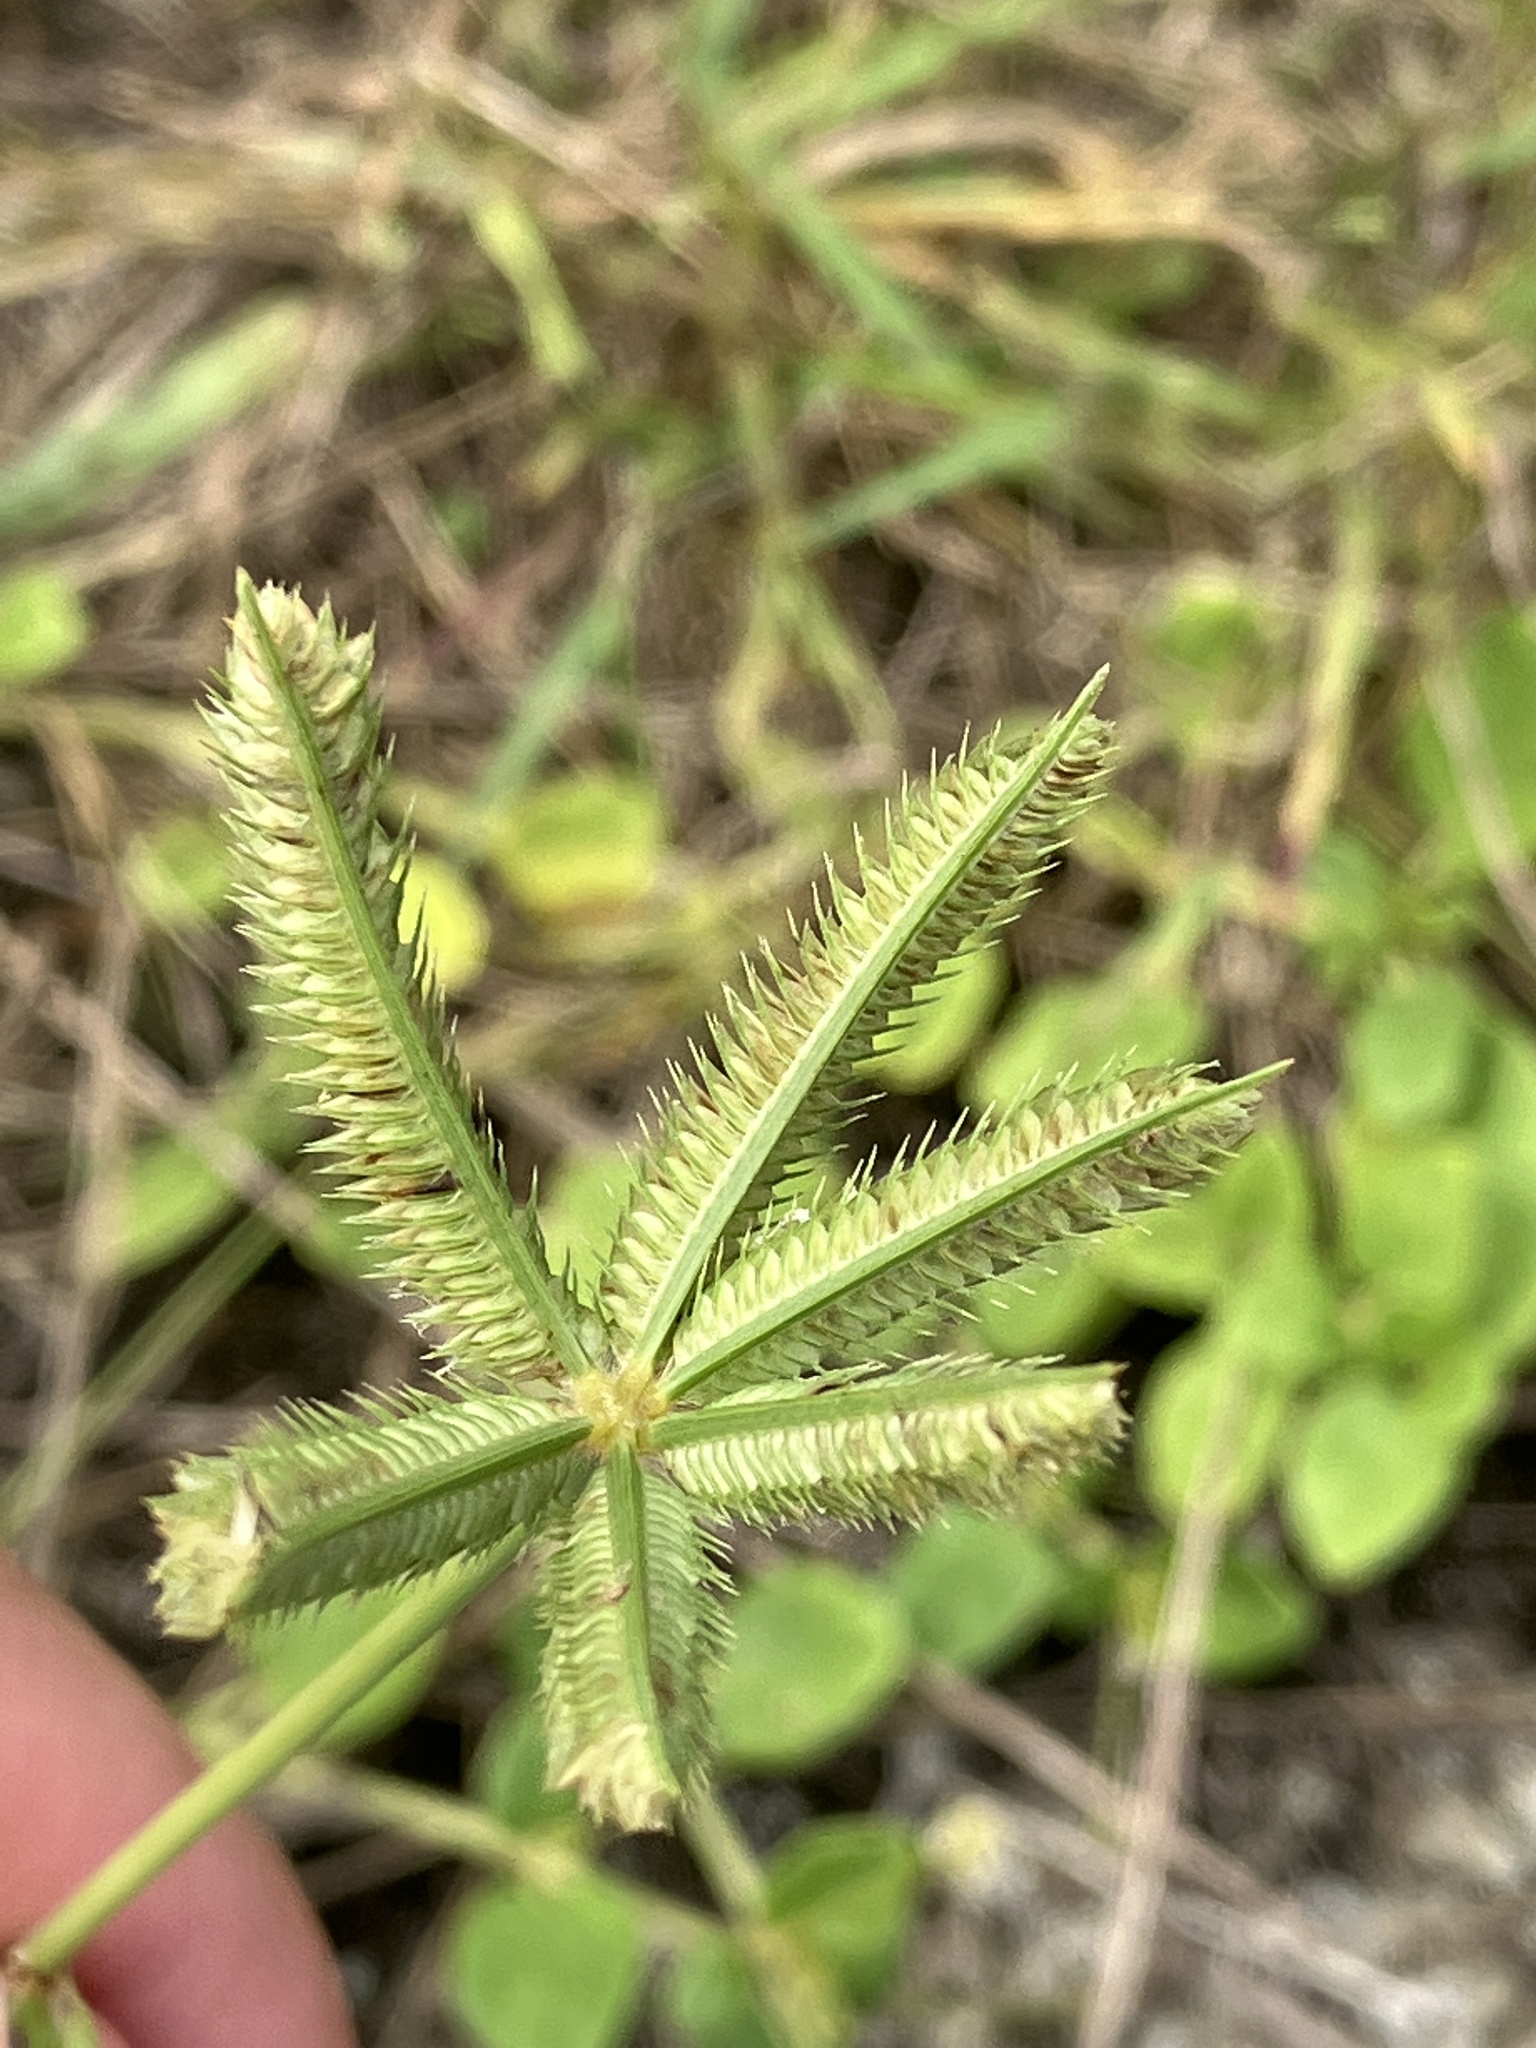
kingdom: Plantae
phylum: Tracheophyta
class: Liliopsida
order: Poales
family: Poaceae
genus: Dactyloctenium
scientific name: Dactyloctenium ctenoides
